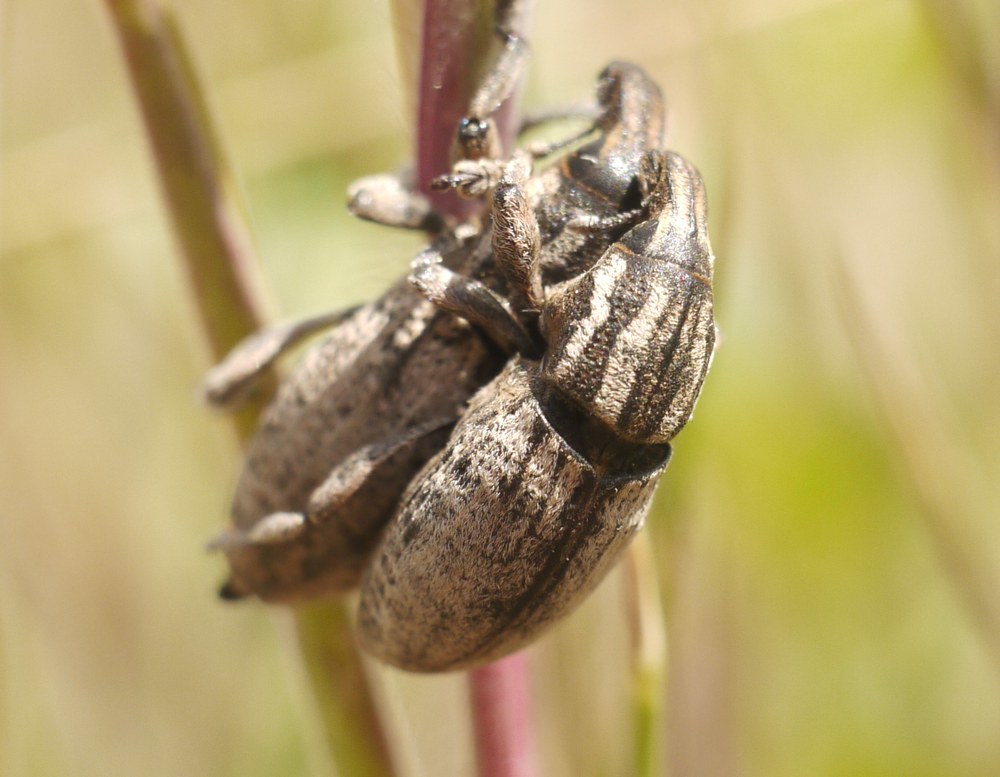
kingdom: Animalia
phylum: Arthropoda
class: Insecta
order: Coleoptera
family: Curculionidae
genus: Pseudocleonus
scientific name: Pseudocleonus cinereus
